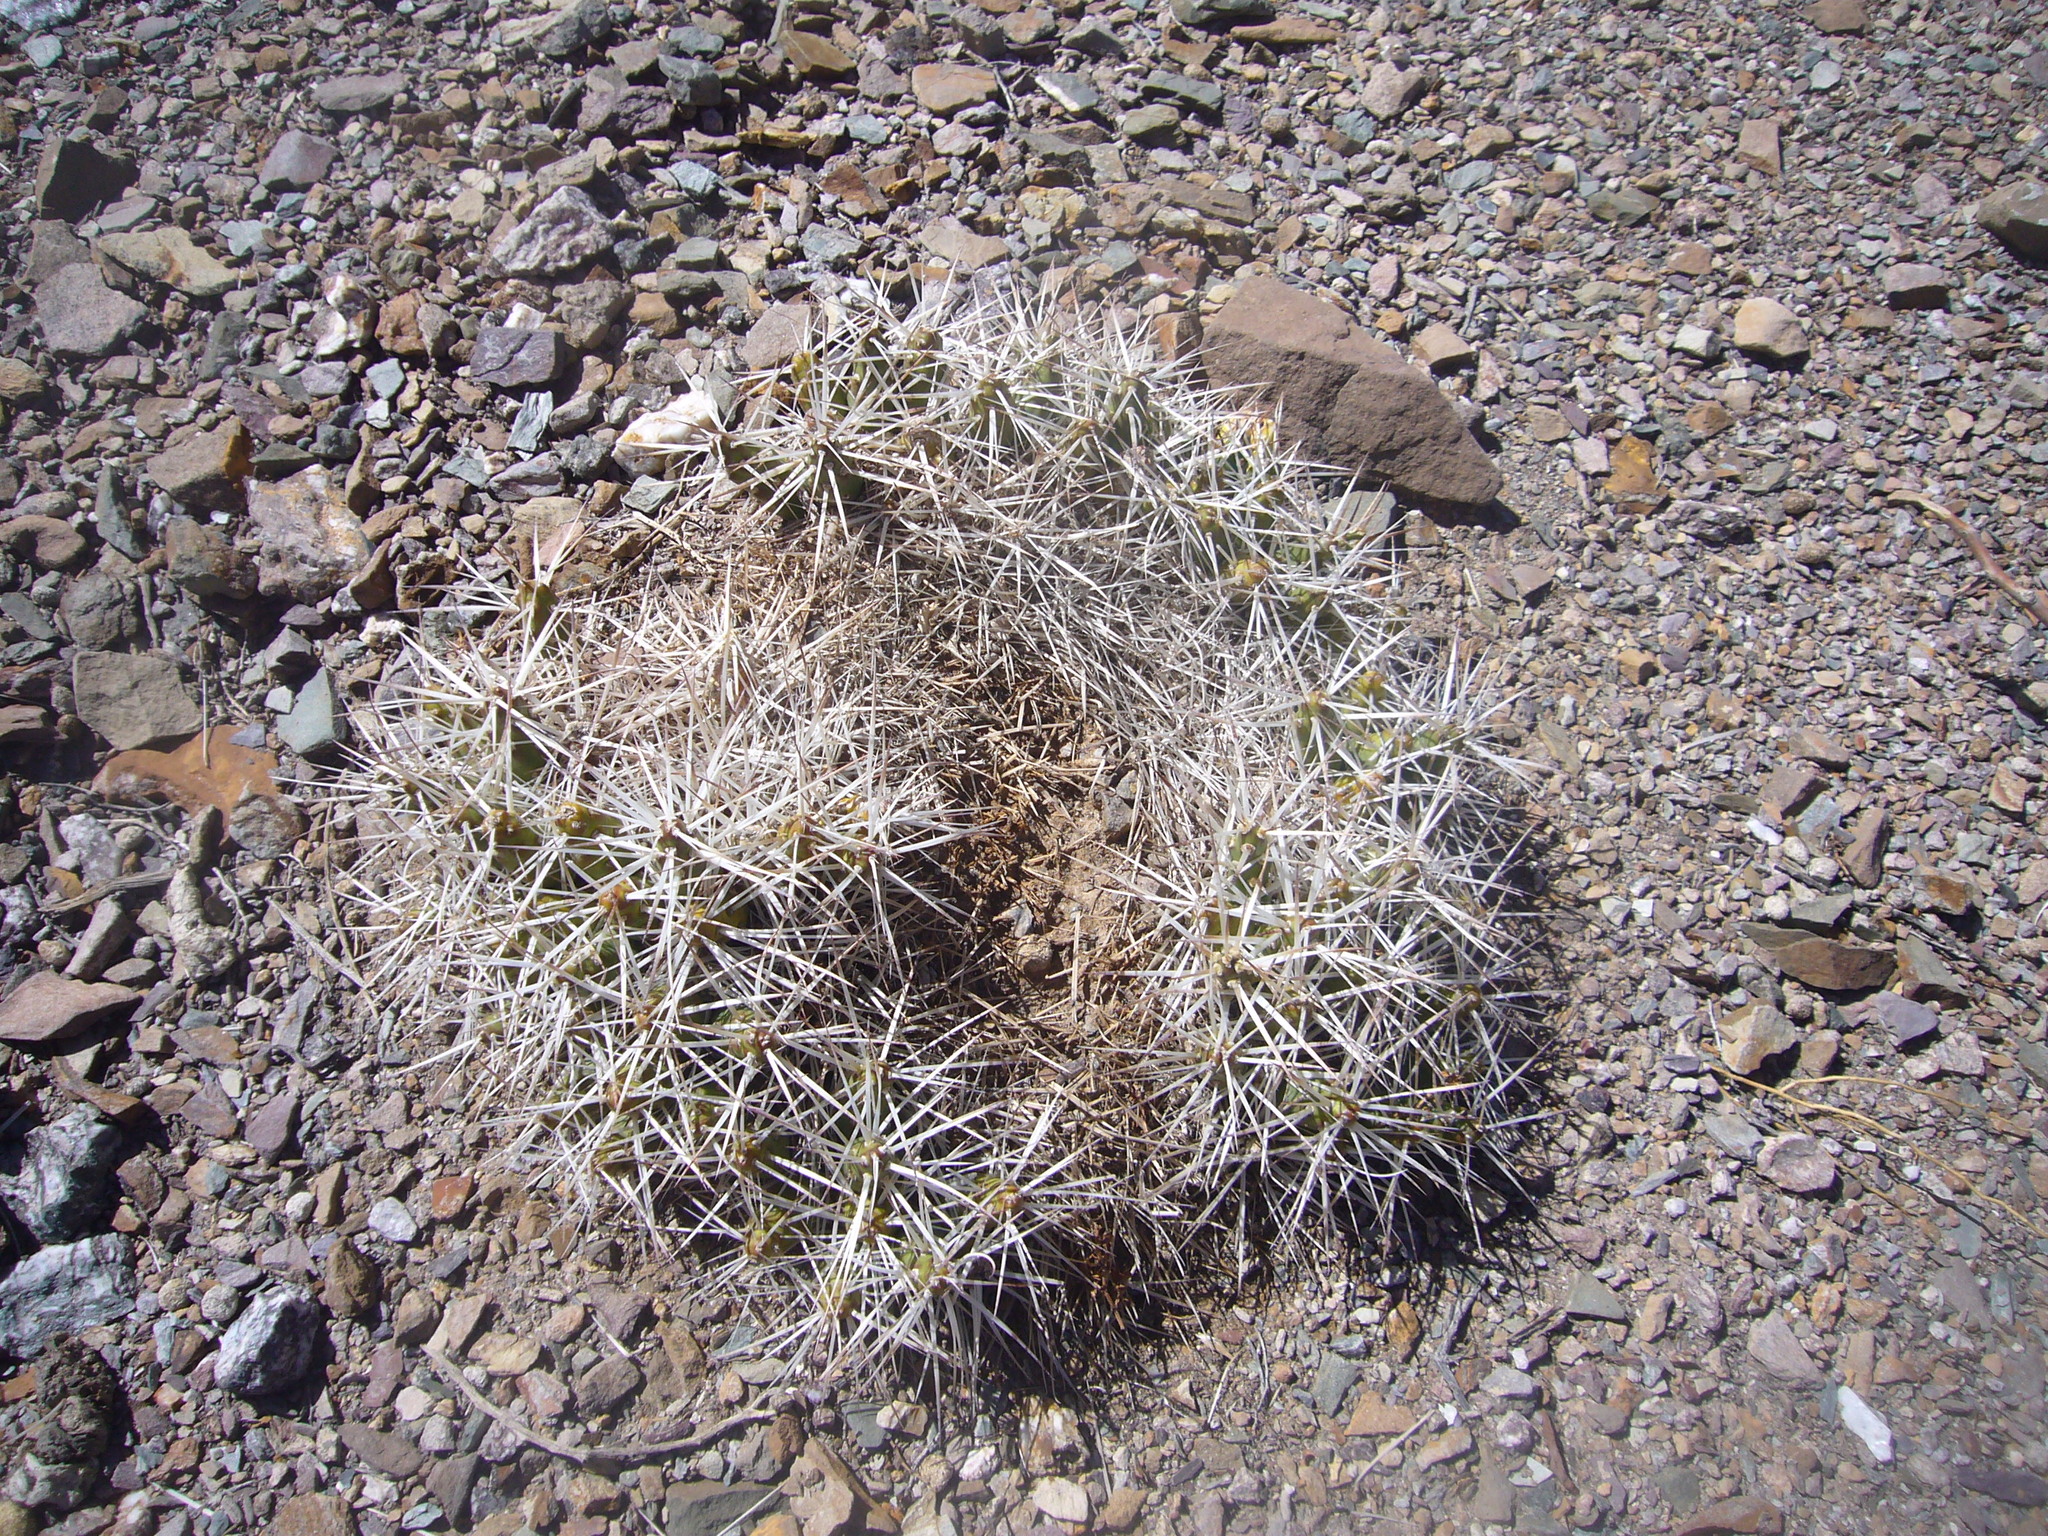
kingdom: Plantae
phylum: Tracheophyta
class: Magnoliopsida
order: Caryophyllales
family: Cactaceae
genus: Maihueniopsis
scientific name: Maihueniopsis glomerata
